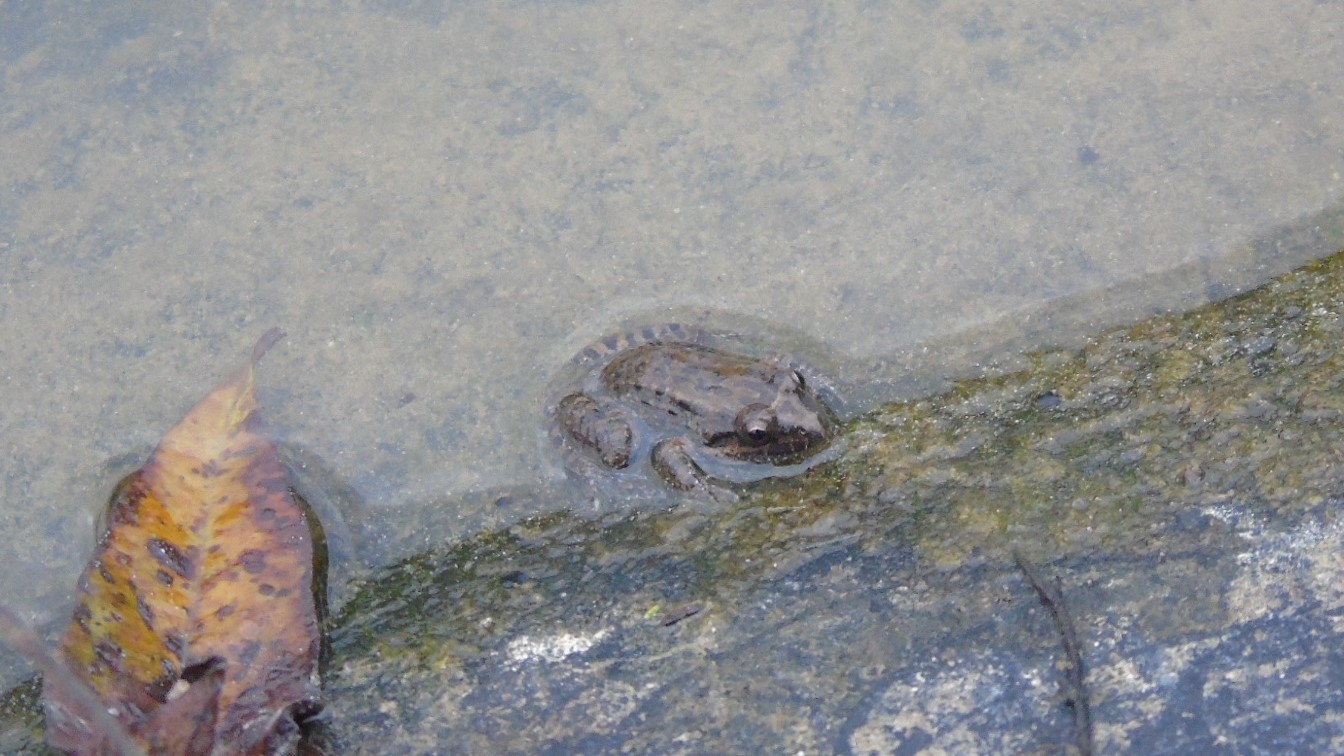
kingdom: Animalia
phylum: Chordata
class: Amphibia
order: Anura
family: Ranidae
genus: Lithobates
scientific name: Lithobates magnaocularis
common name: Northwest mexico leopard frog
